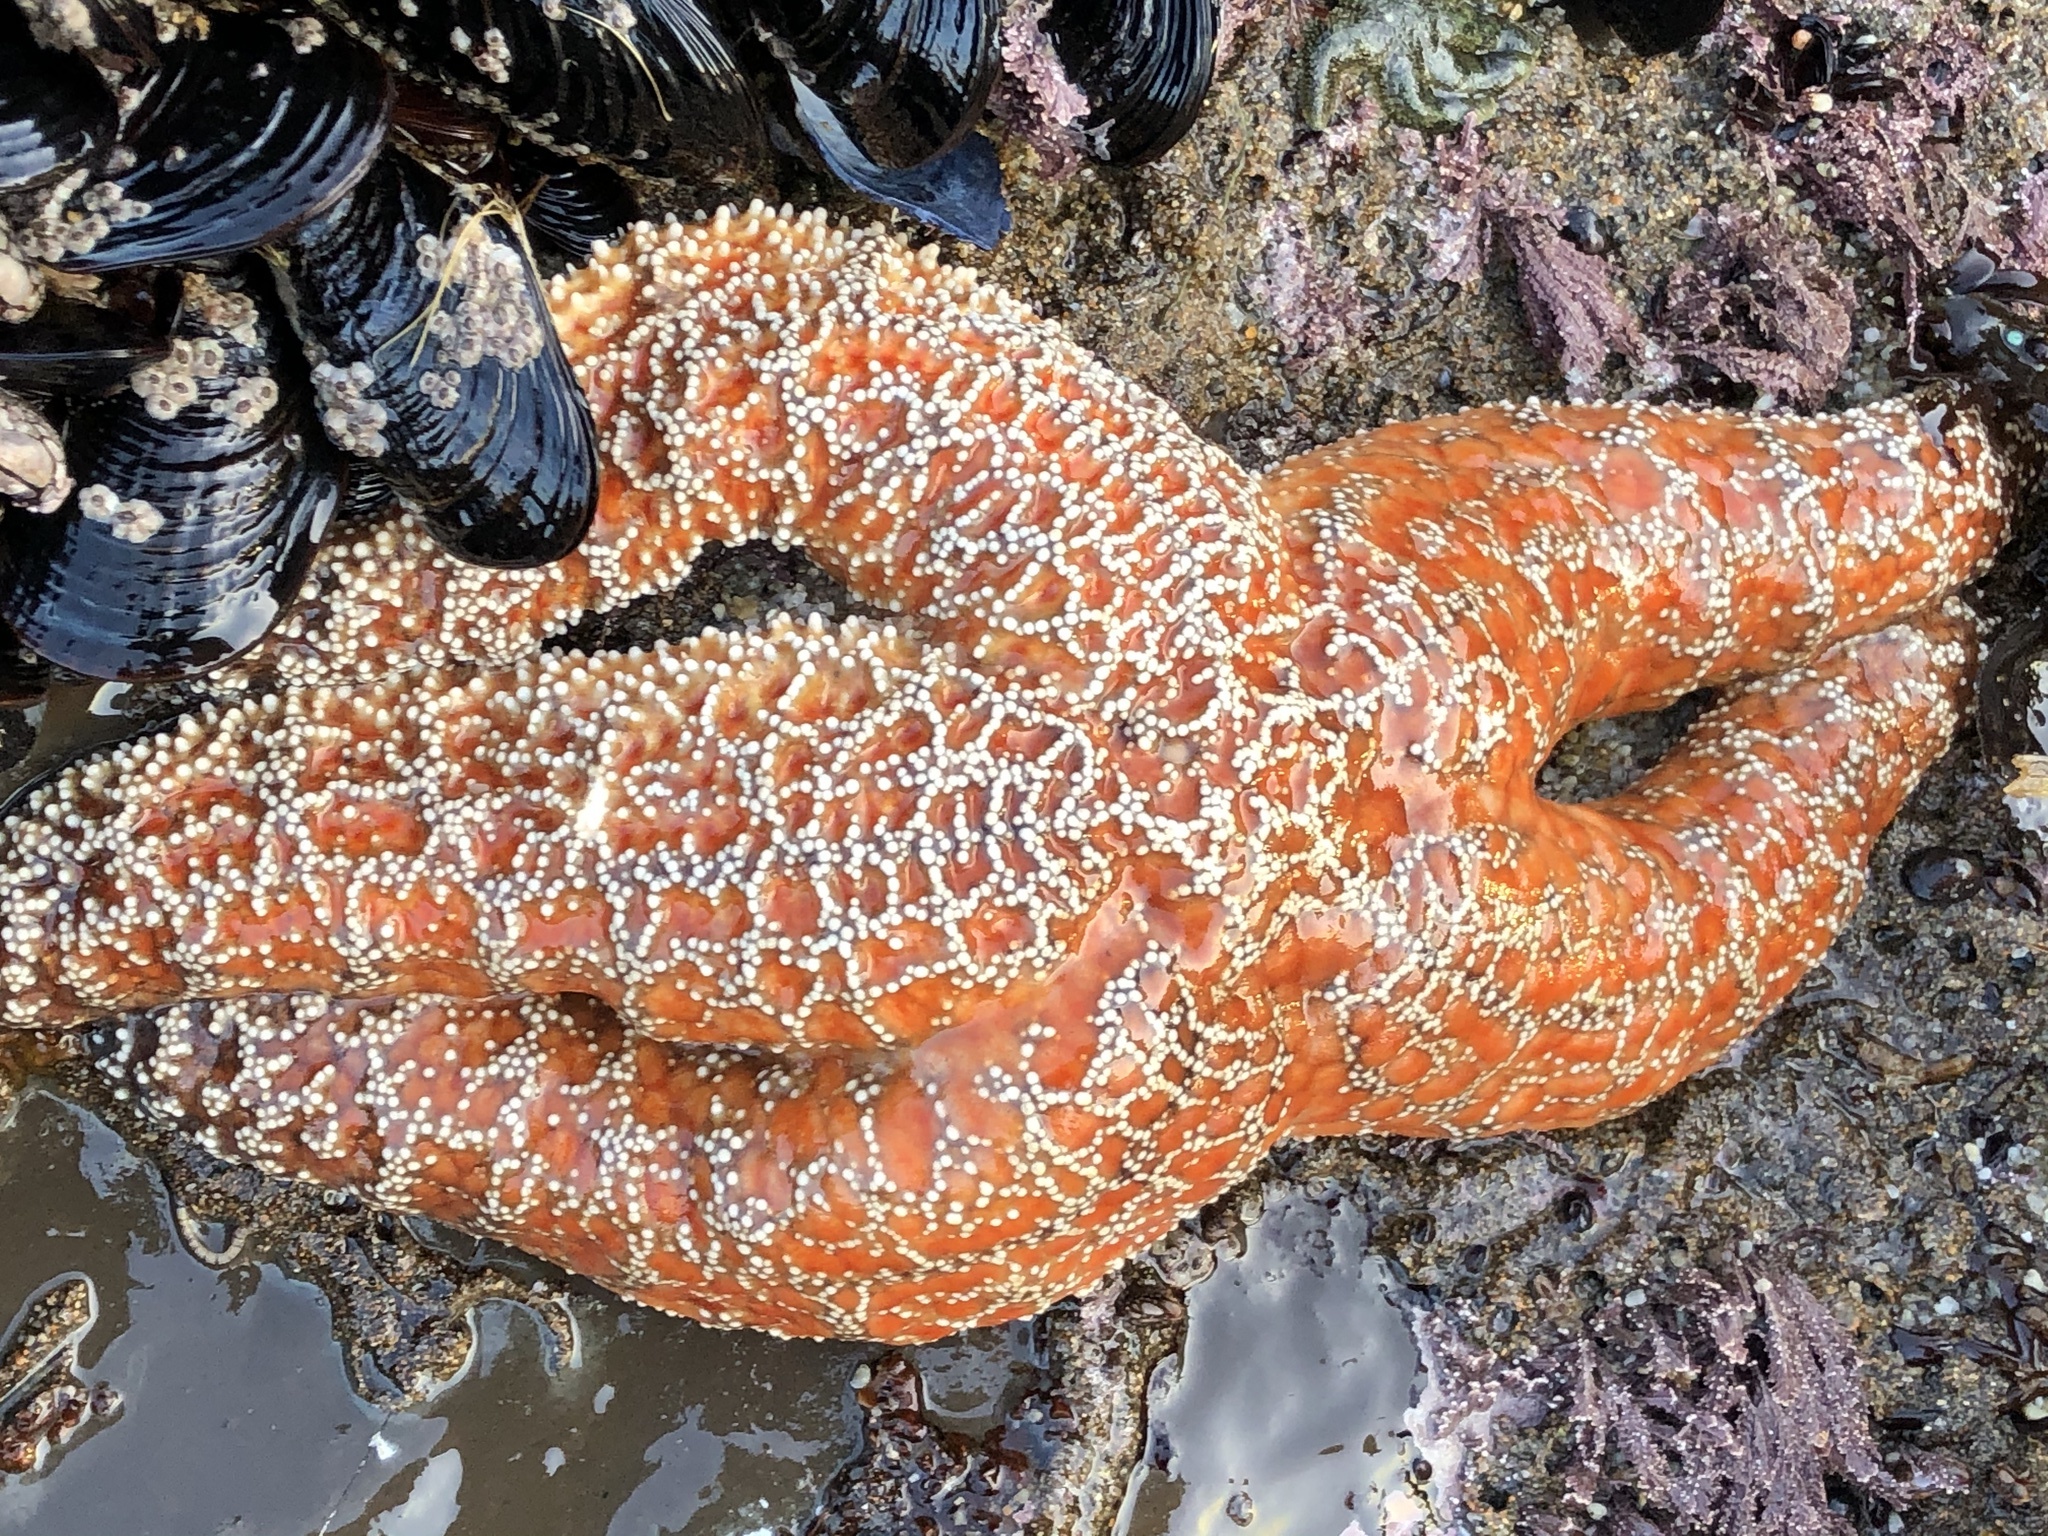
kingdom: Animalia
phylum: Echinodermata
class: Asteroidea
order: Forcipulatida
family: Asteriidae
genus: Pisaster
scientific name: Pisaster ochraceus
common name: Ochre stars
